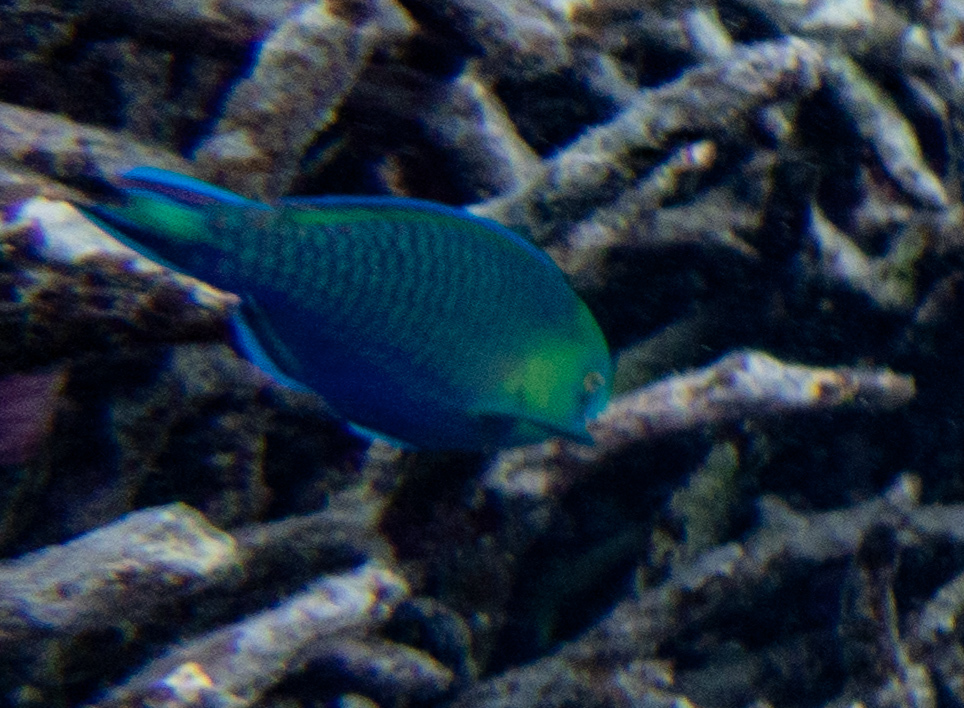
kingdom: Animalia
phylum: Chordata
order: Perciformes
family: Scaridae
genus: Scarus
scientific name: Scarus spinus
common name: Greensnout parrotfish
